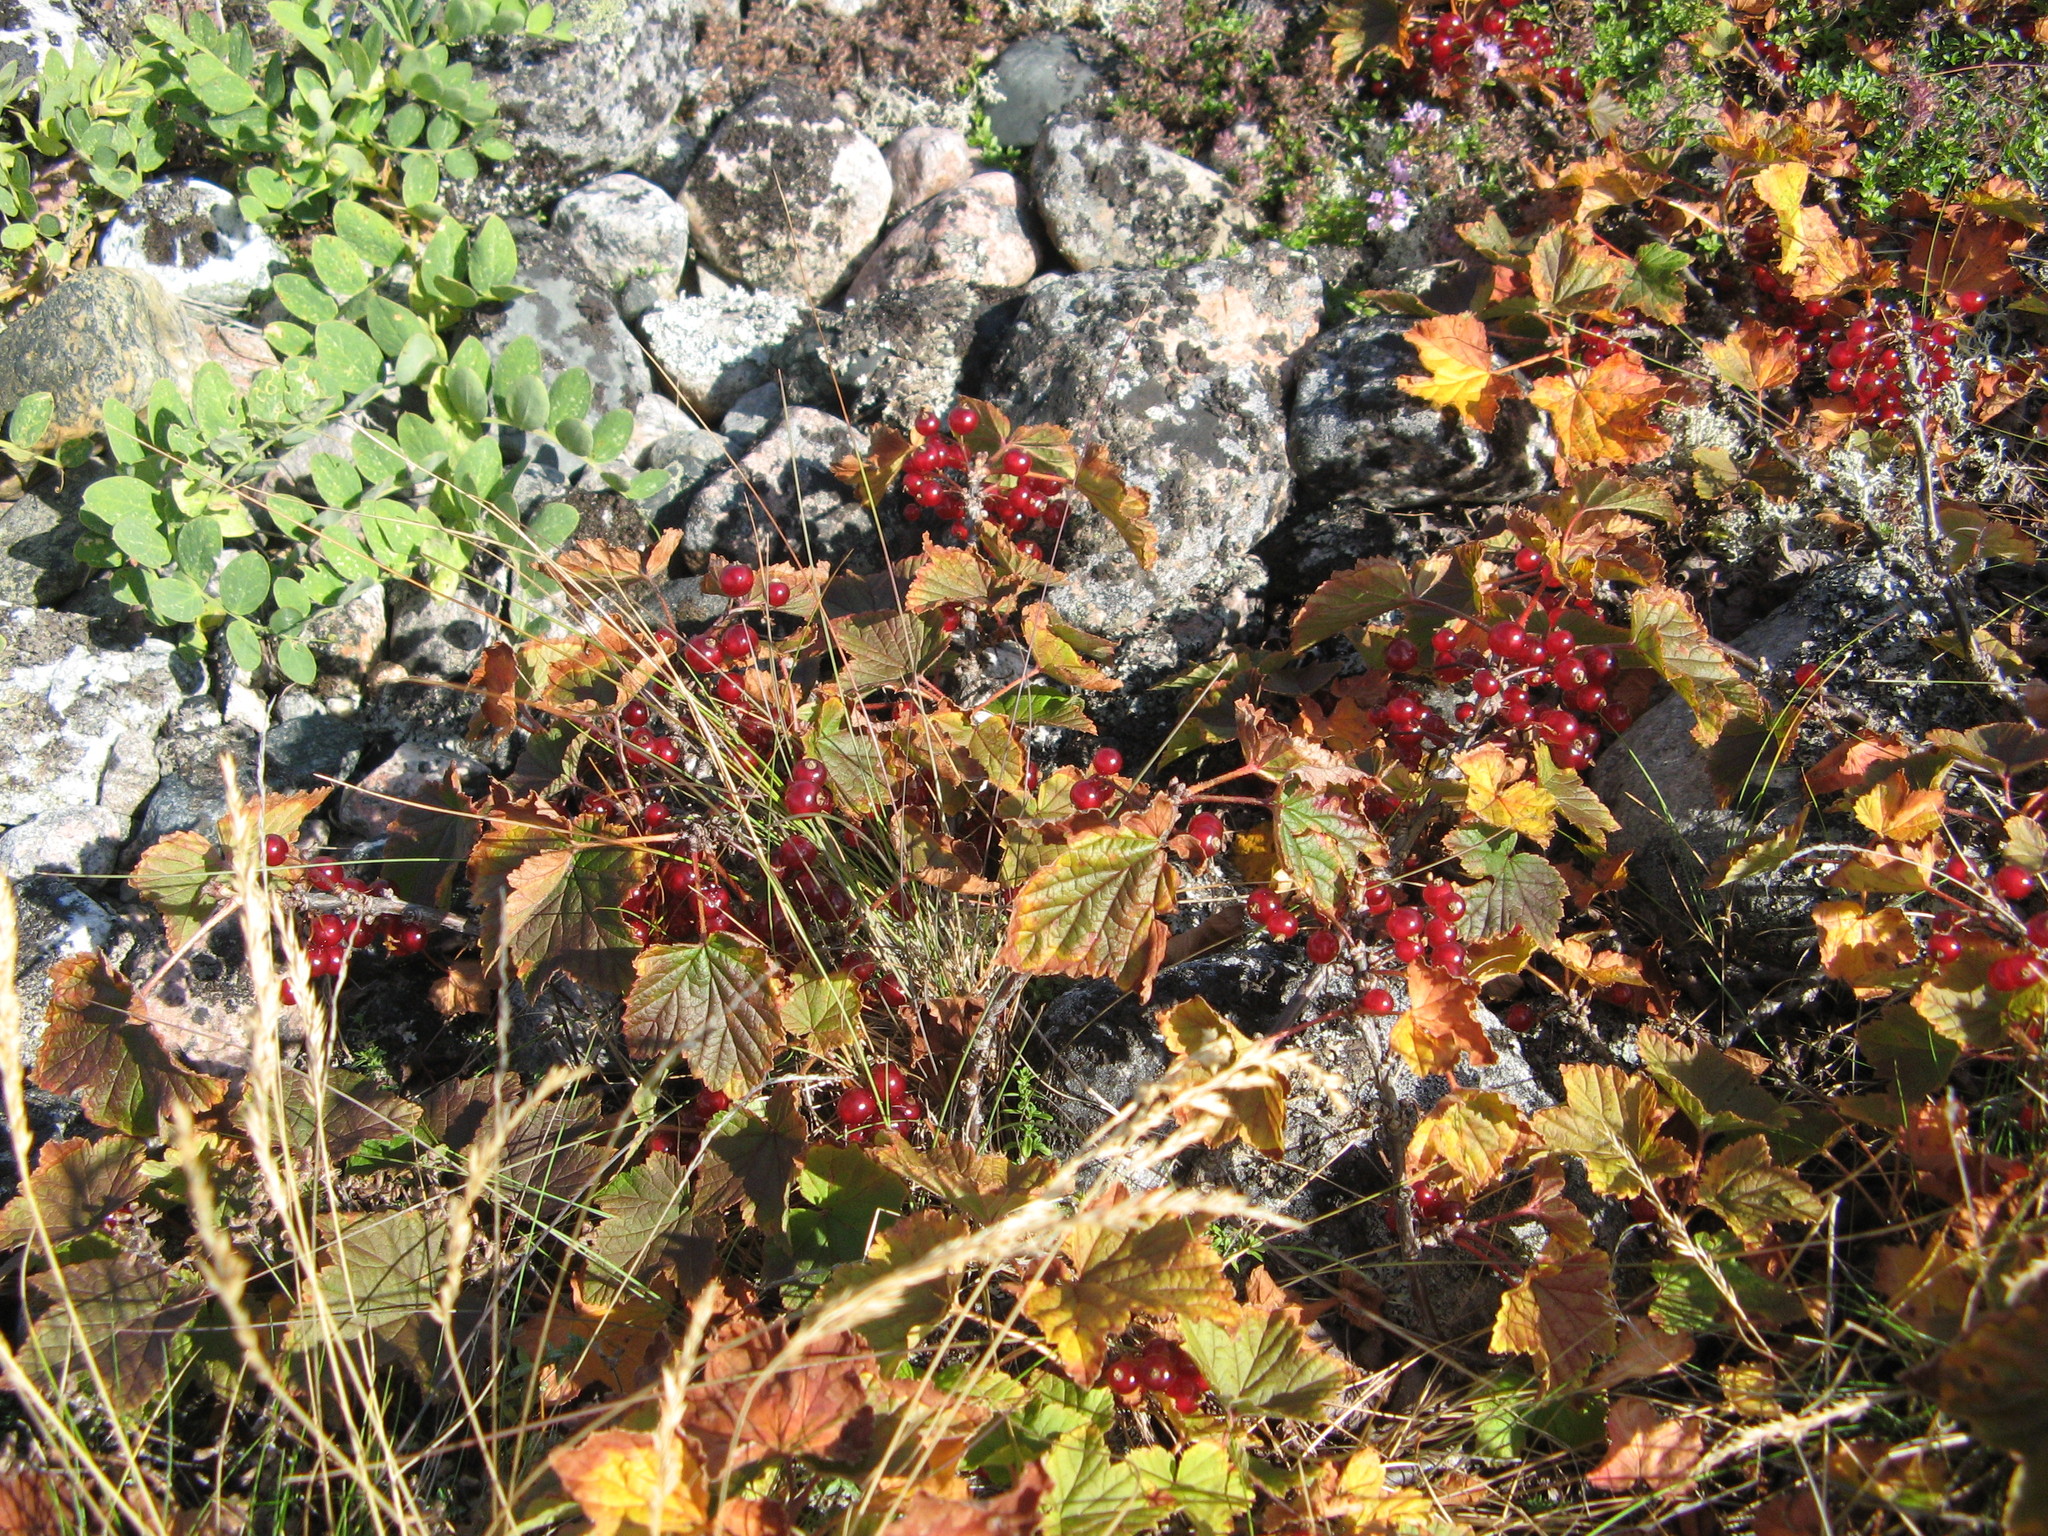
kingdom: Plantae
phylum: Tracheophyta
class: Magnoliopsida
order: Saxifragales
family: Grossulariaceae
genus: Ribes
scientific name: Ribes spicatum
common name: Downy currant
